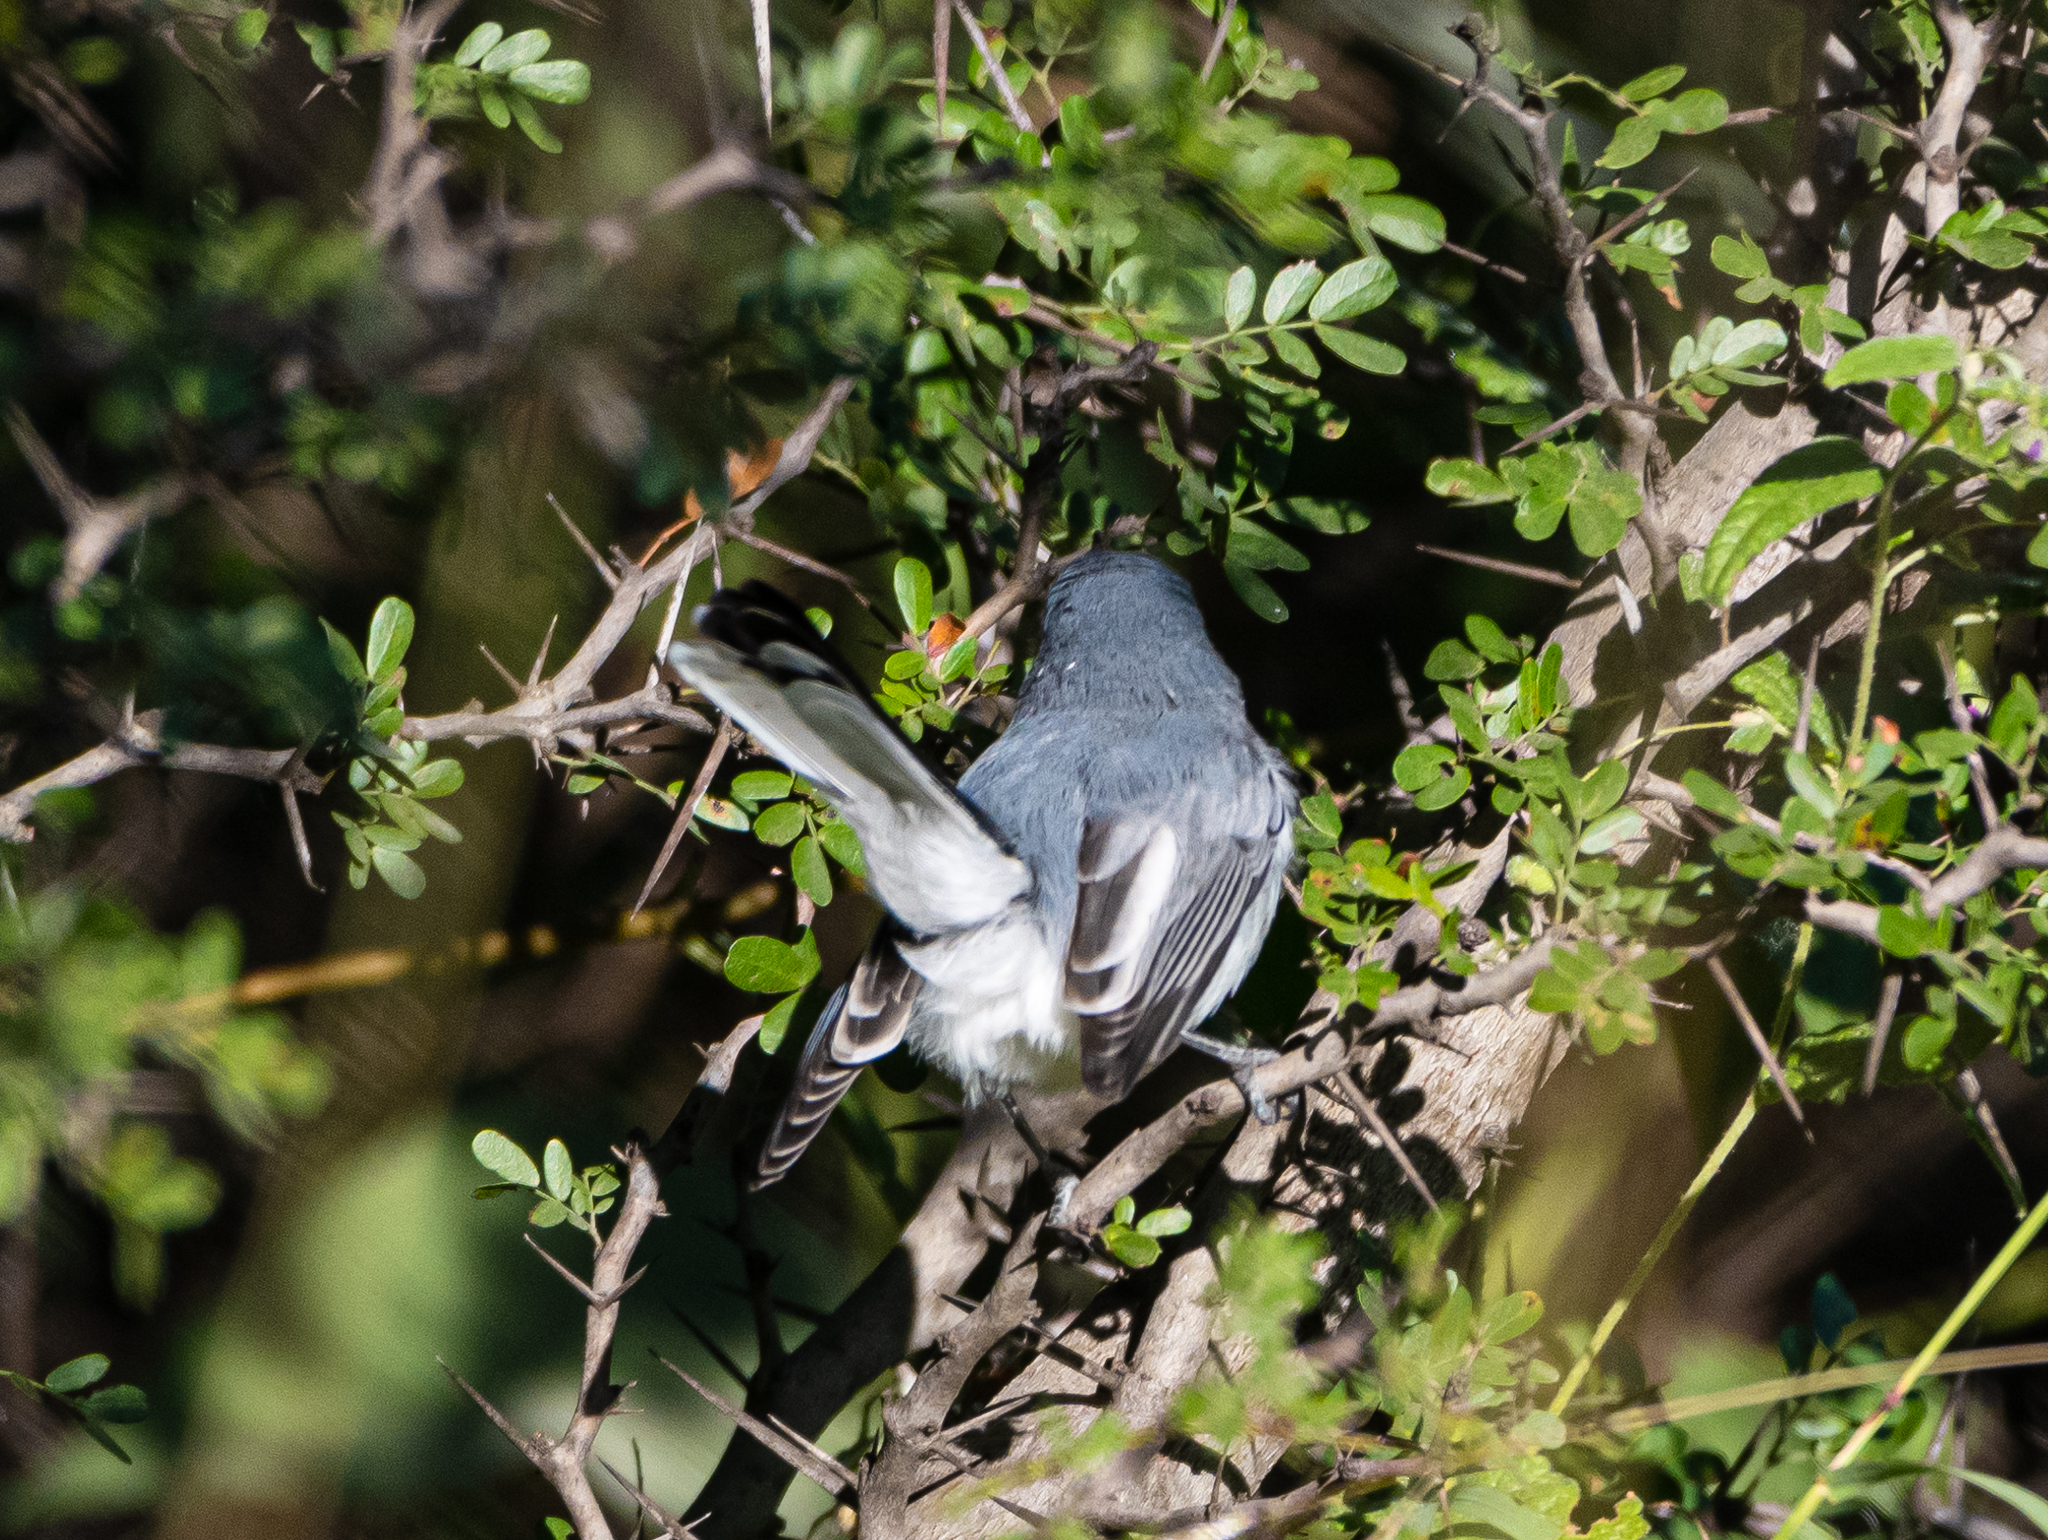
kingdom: Animalia
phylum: Chordata
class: Aves
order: Passeriformes
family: Polioptilidae
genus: Polioptila
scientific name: Polioptila caerulea
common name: Blue-gray gnatcatcher
